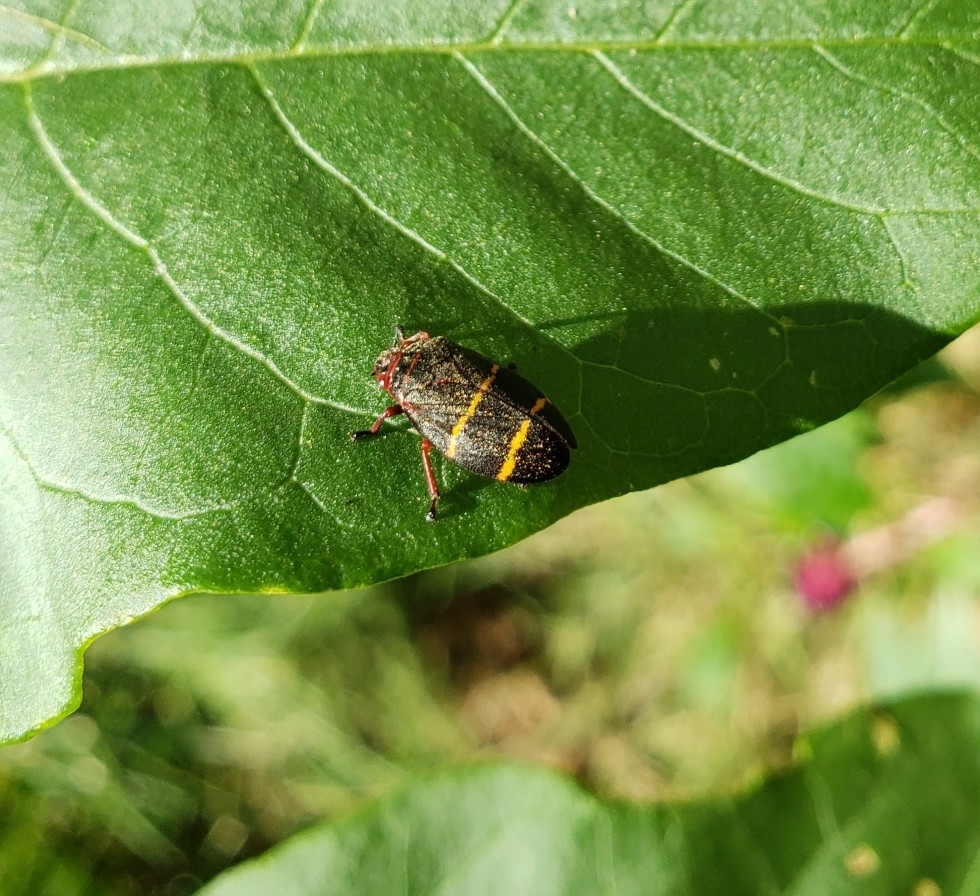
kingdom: Animalia
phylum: Arthropoda
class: Insecta
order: Hemiptera
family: Cercopidae
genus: Prosapia
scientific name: Prosapia bicincta
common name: Twolined spittlebug
